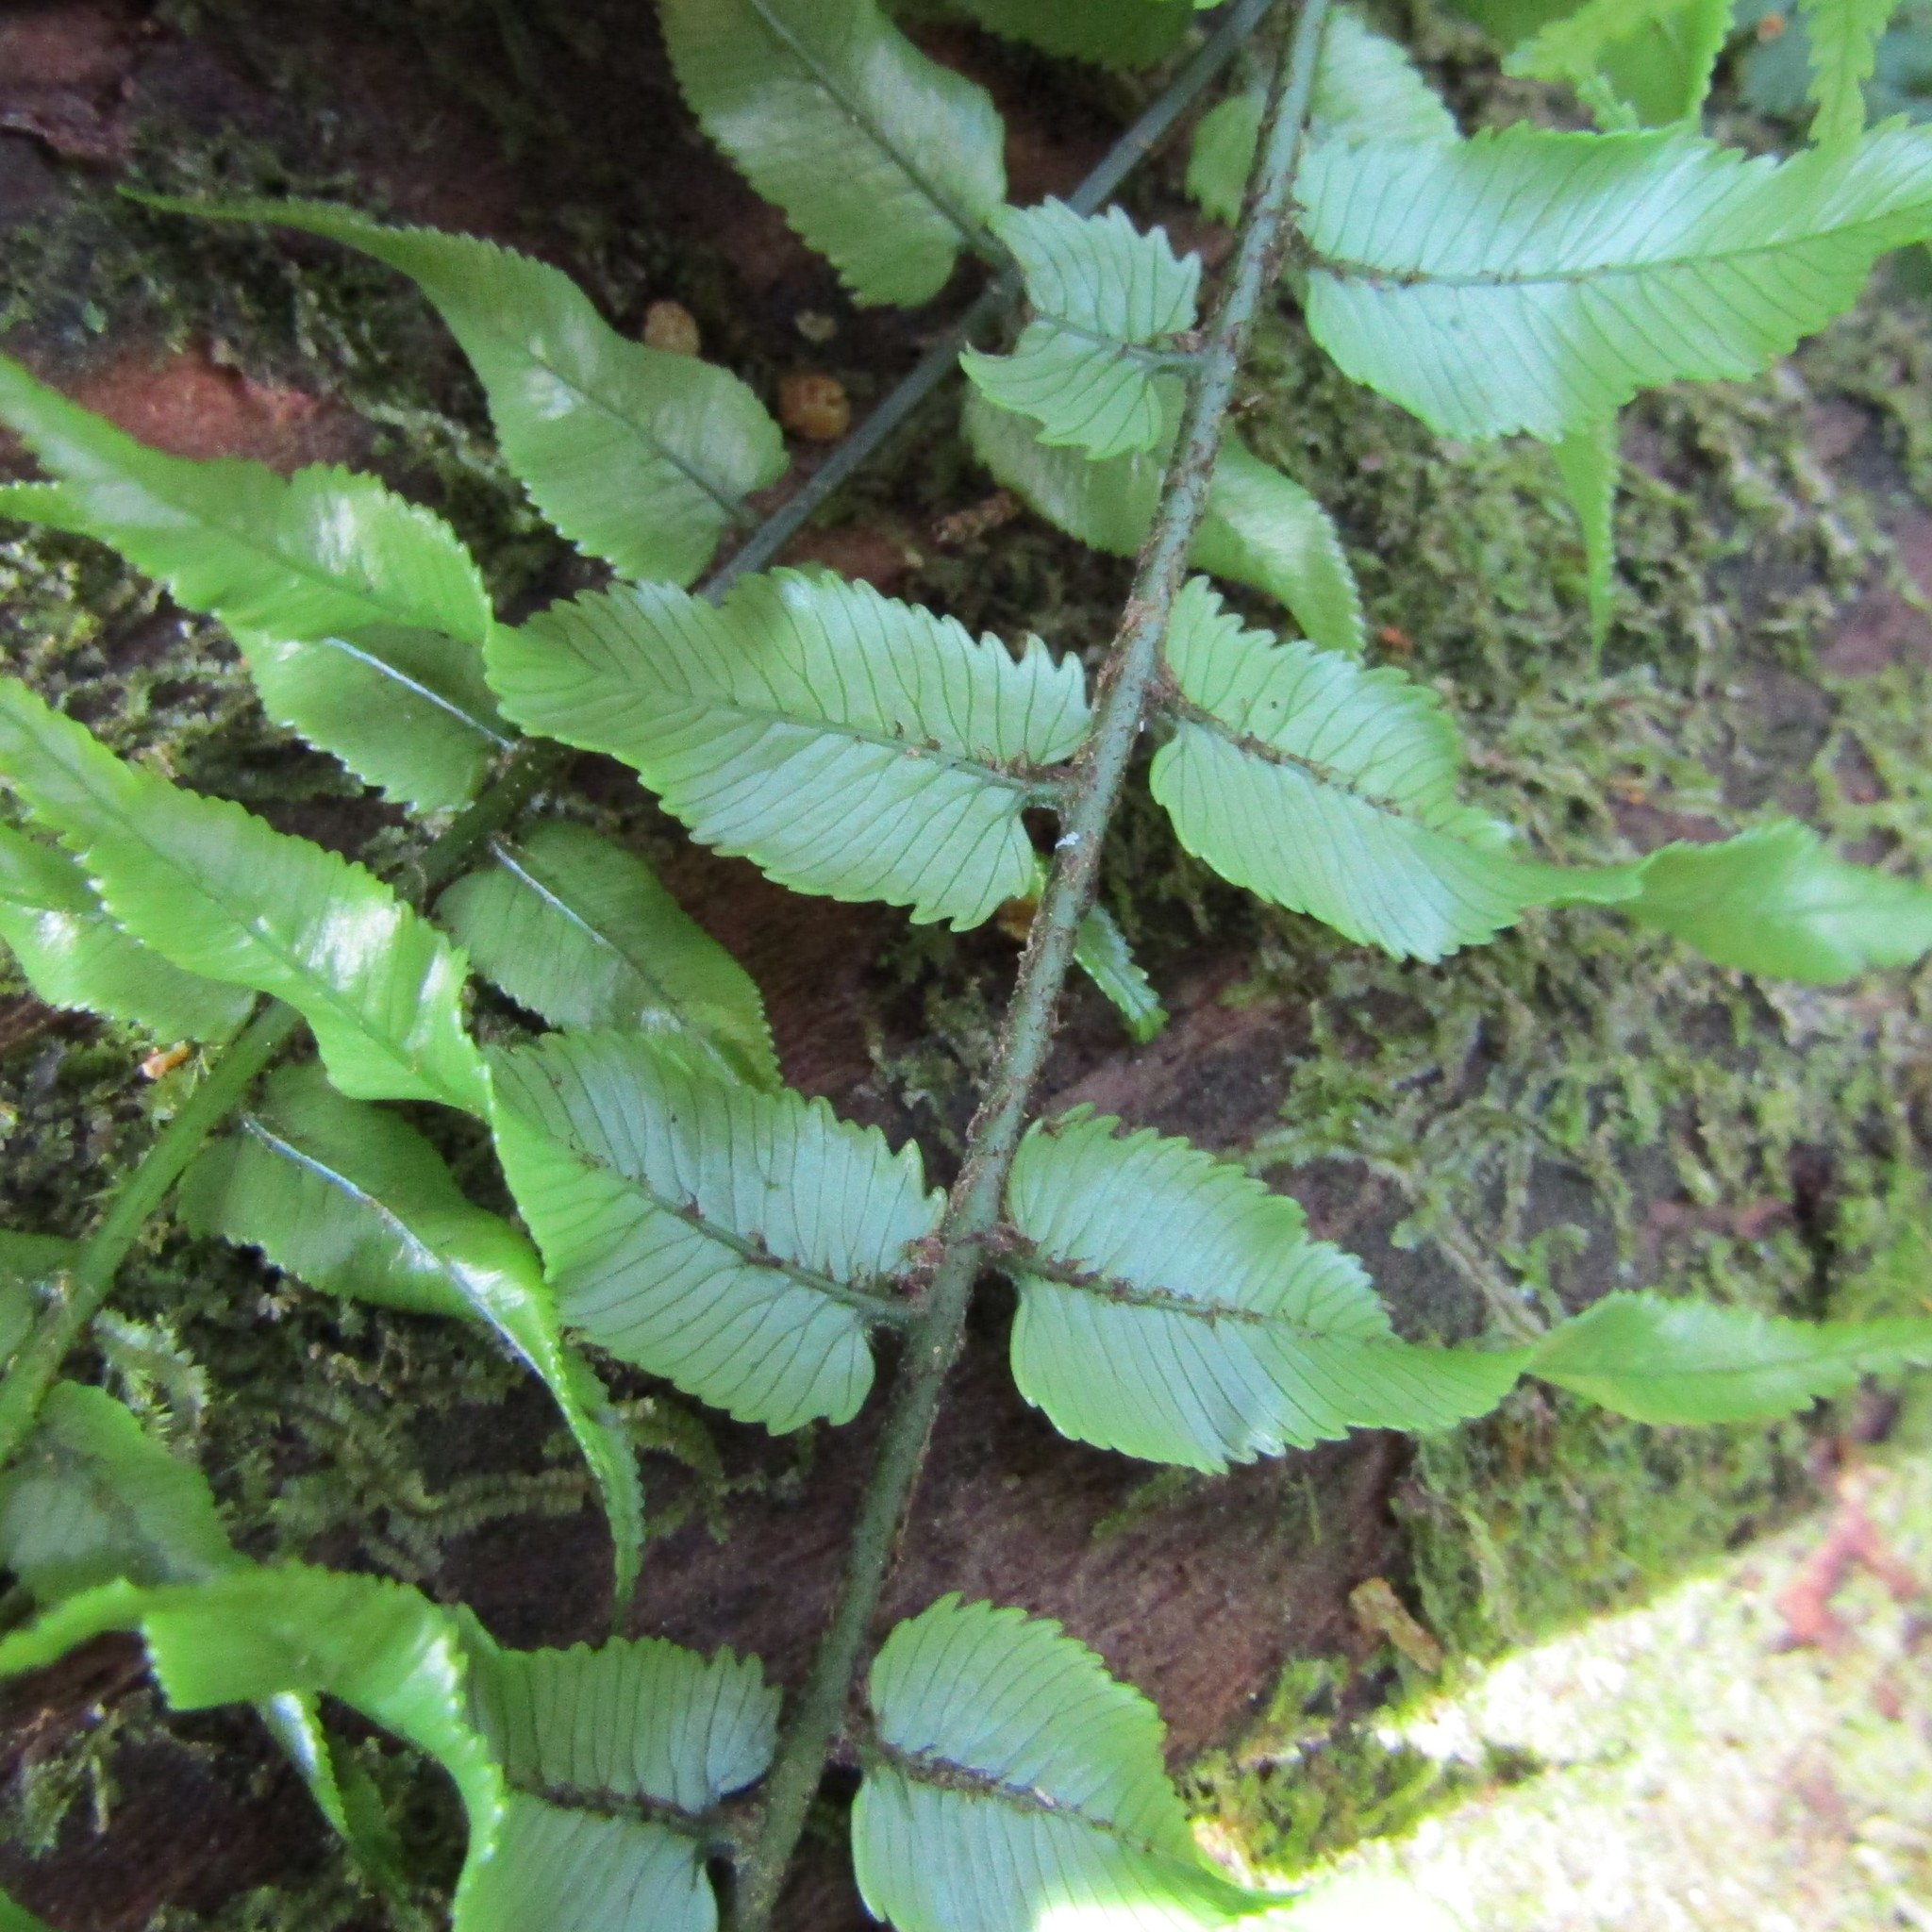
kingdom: Plantae
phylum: Tracheophyta
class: Polypodiopsida
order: Polypodiales
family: Blechnaceae
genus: Icarus
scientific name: Icarus filiformis
